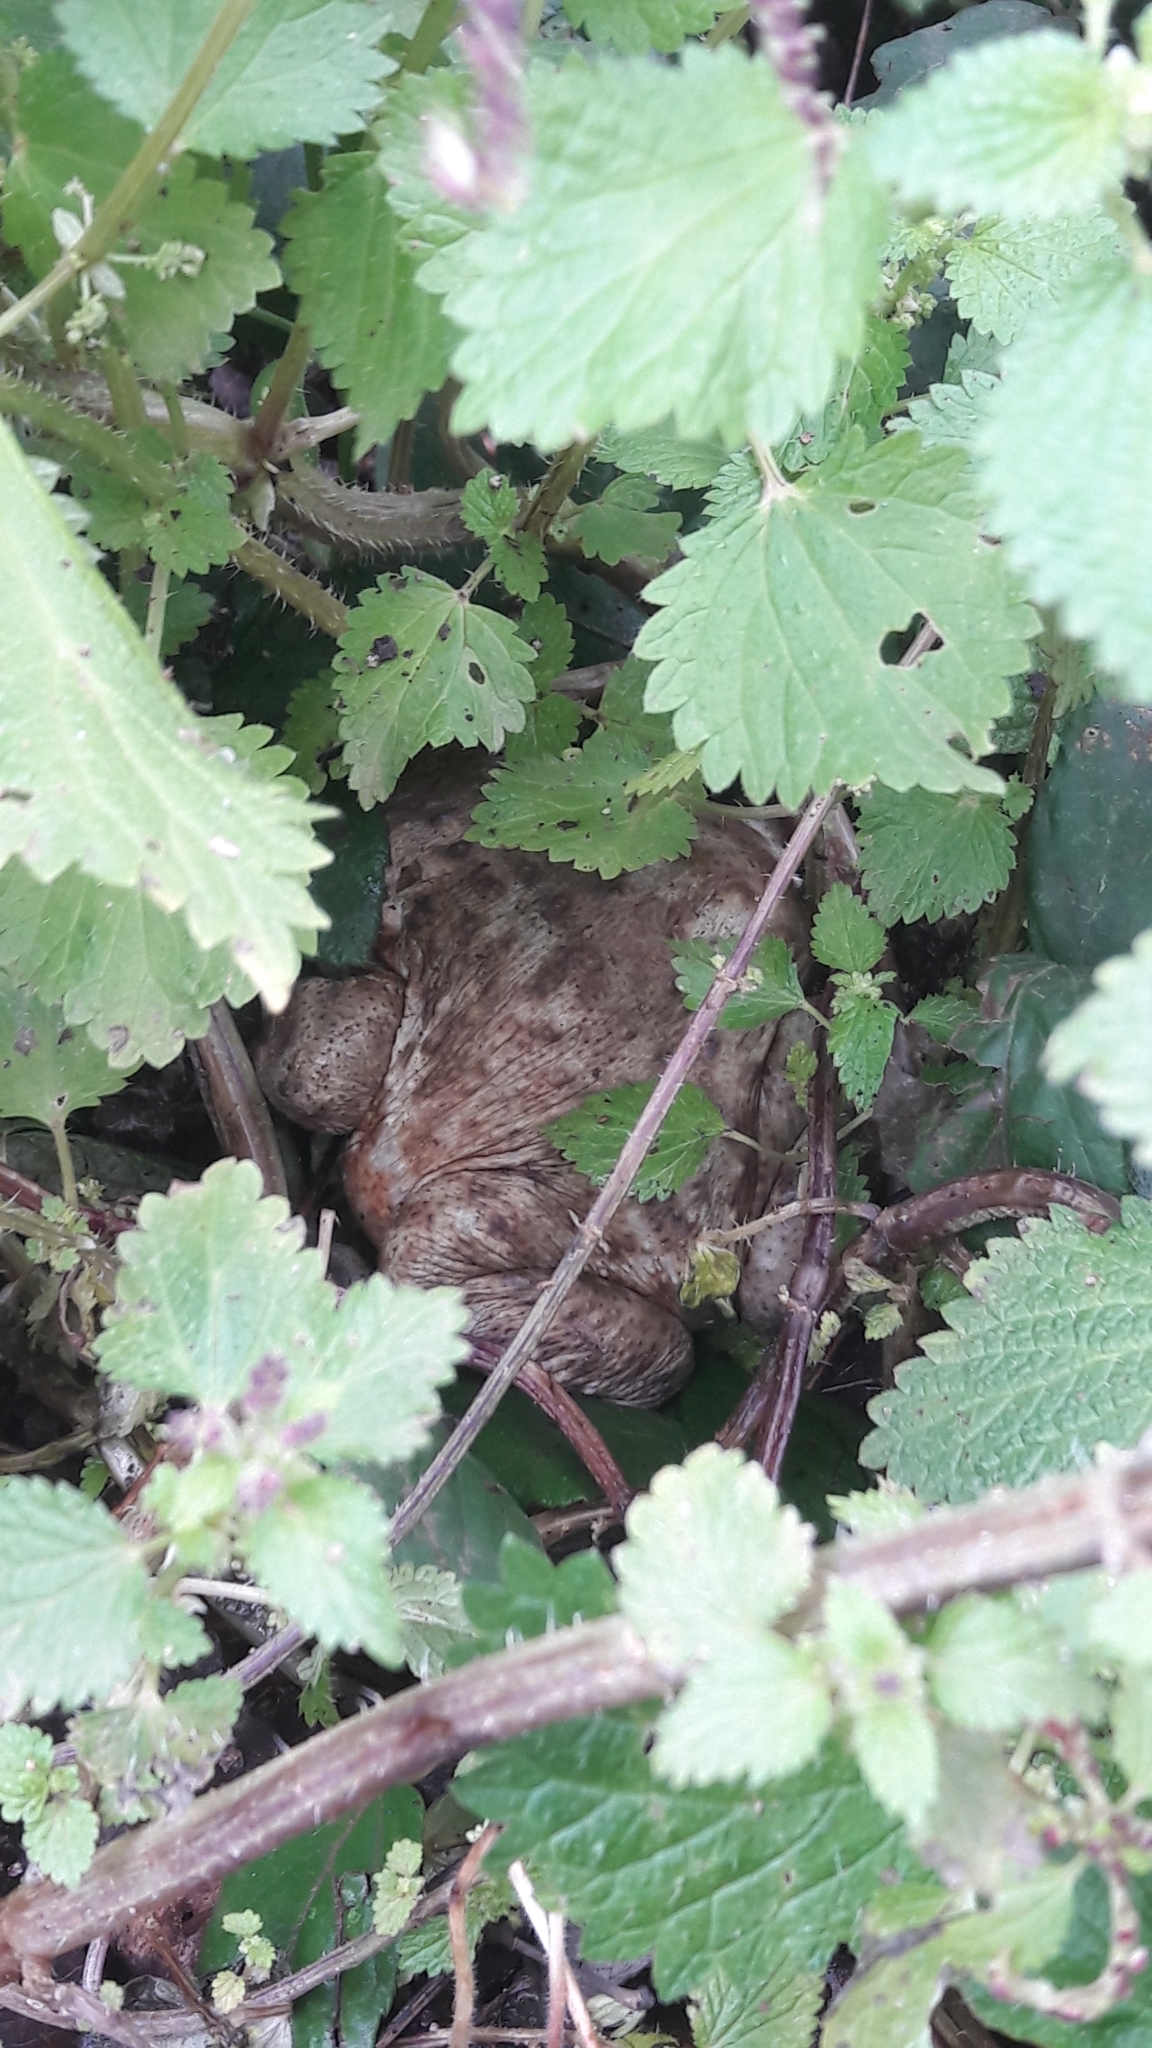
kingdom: Animalia
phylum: Chordata
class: Amphibia
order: Anura
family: Bufonidae
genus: Bufo
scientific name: Bufo bufo
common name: Common toad
